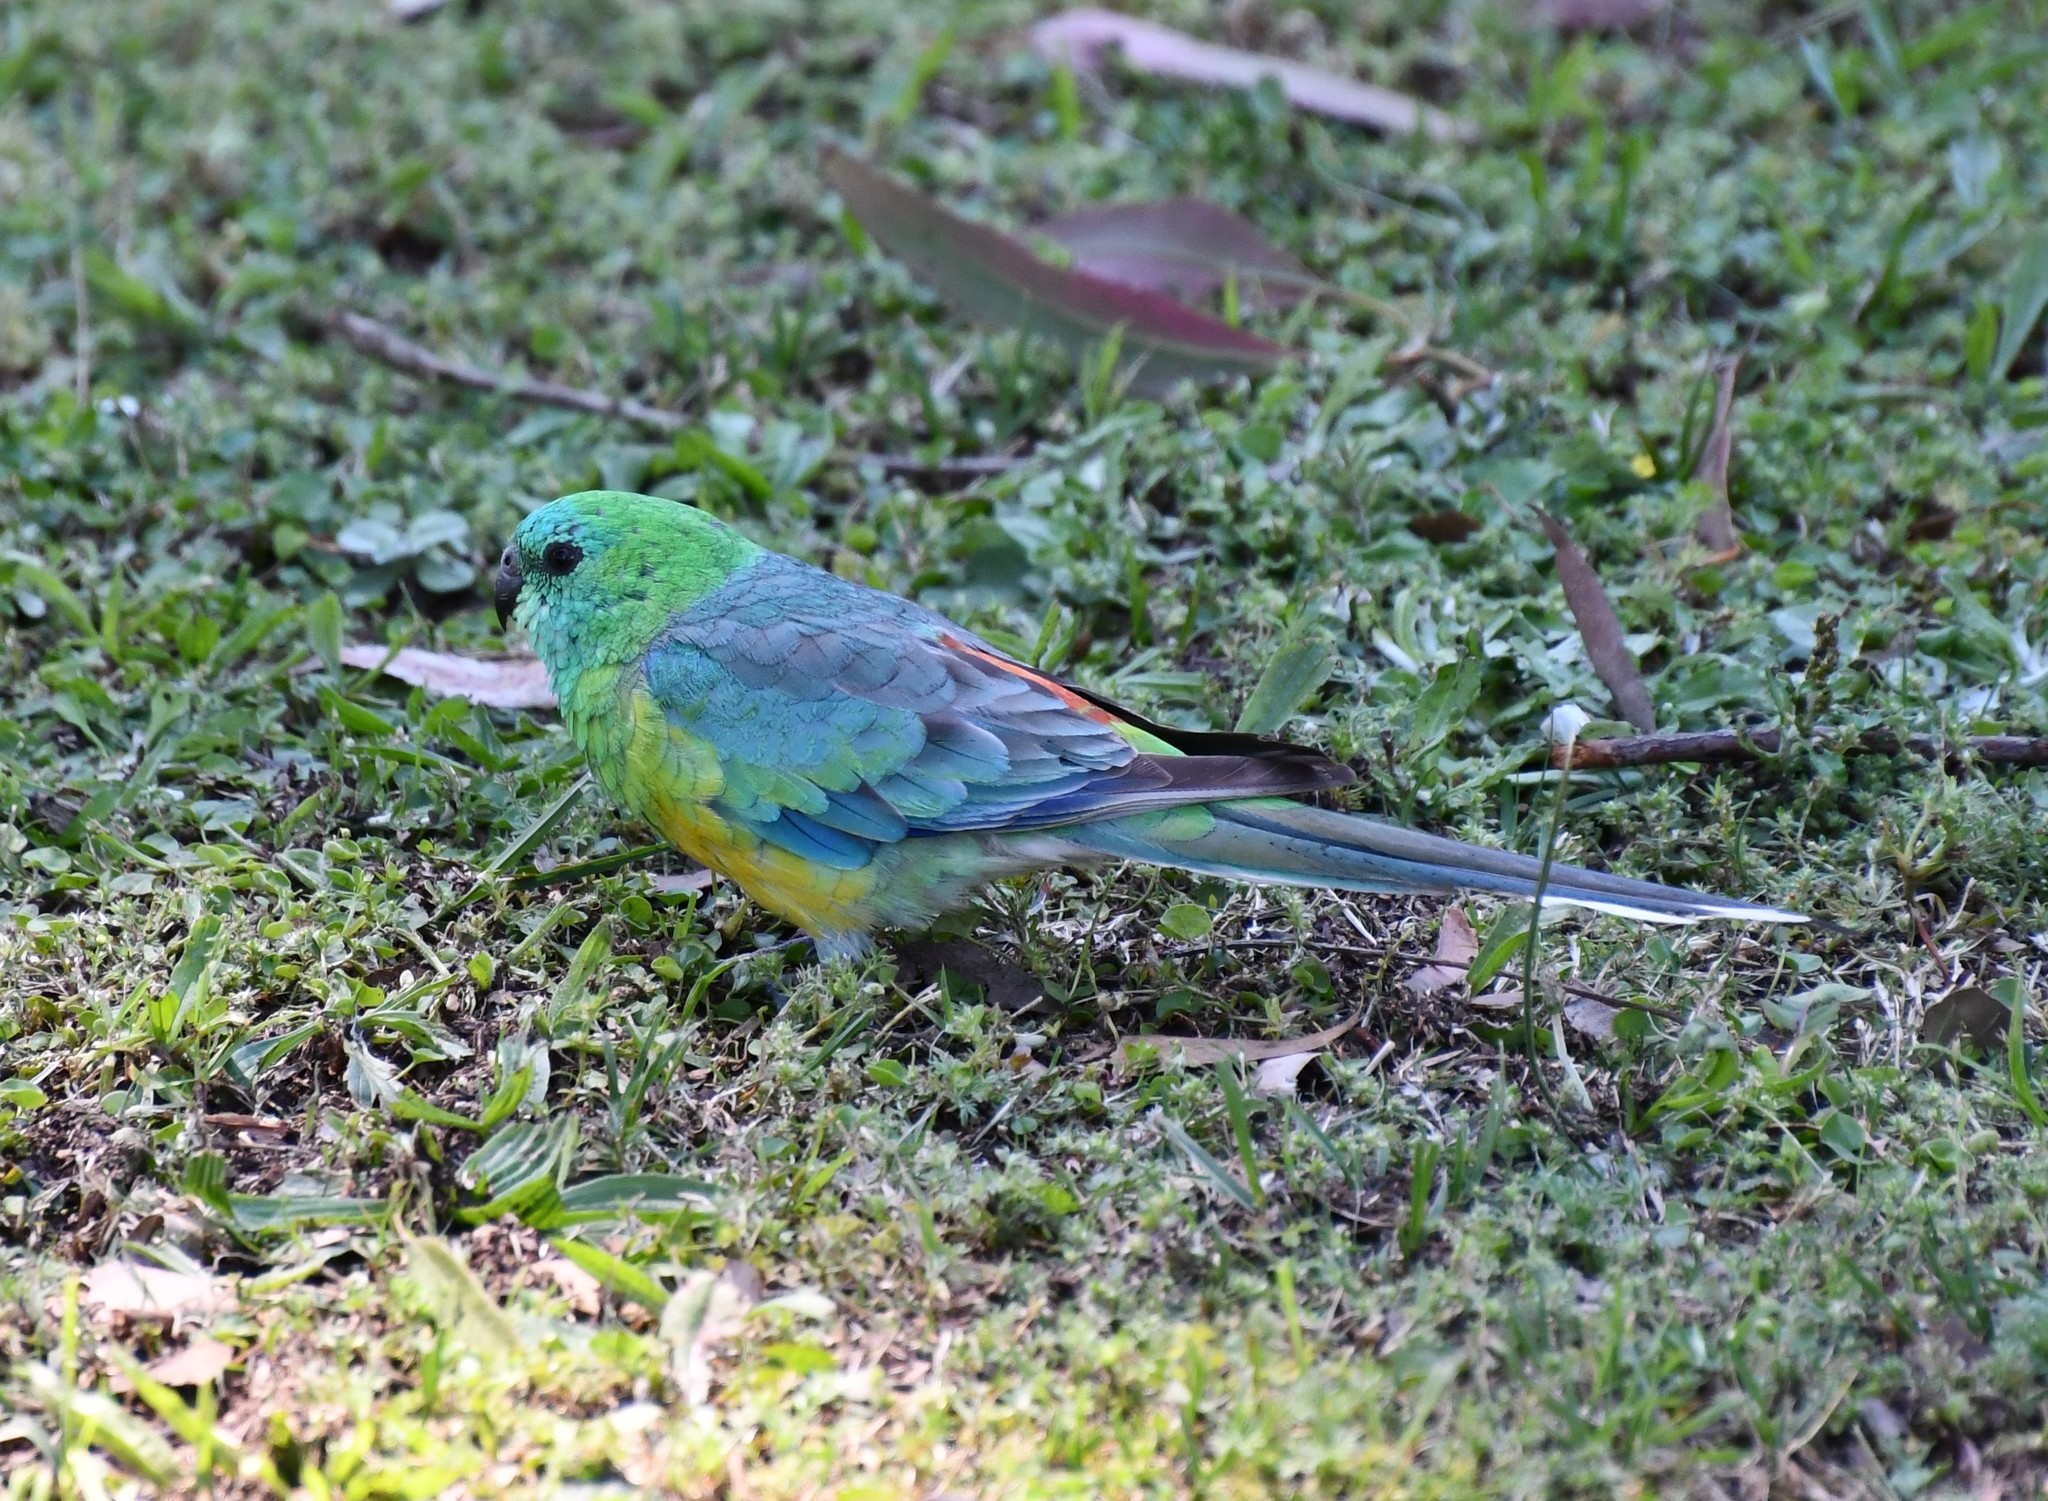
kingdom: Animalia
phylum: Chordata
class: Aves
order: Psittaciformes
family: Psittacidae
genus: Psephotus
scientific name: Psephotus haematonotus
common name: Red-rumped parrot
